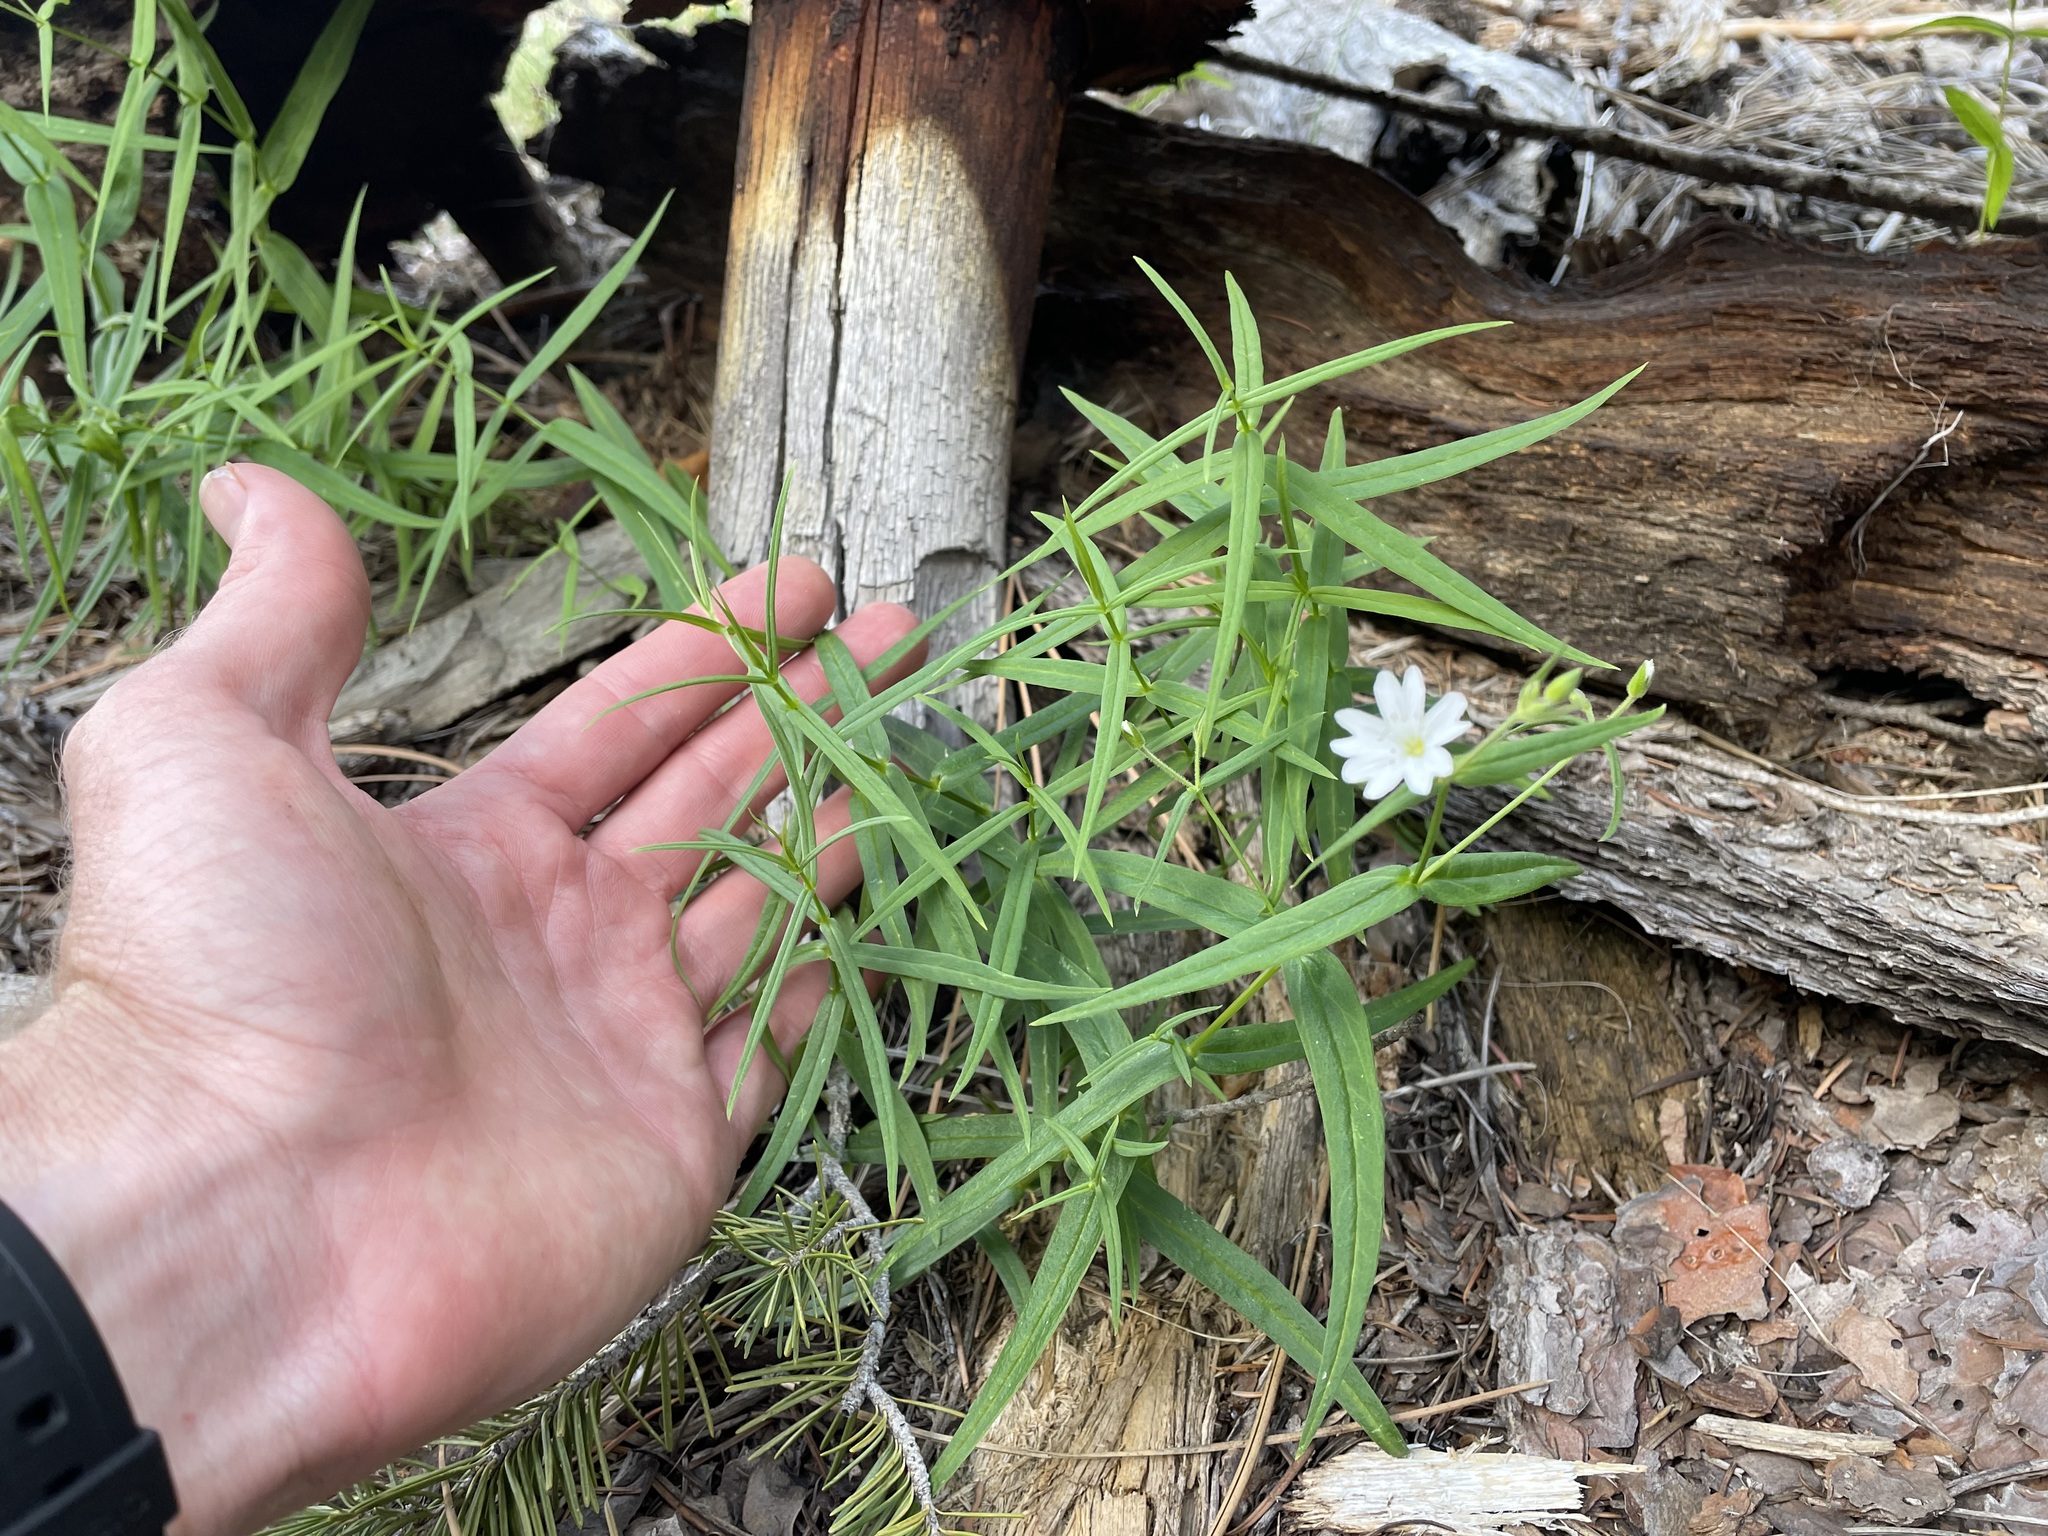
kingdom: Plantae
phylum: Tracheophyta
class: Magnoliopsida
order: Caryophyllales
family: Caryophyllaceae
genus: Schizotechium
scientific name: Schizotechium jamesianum
